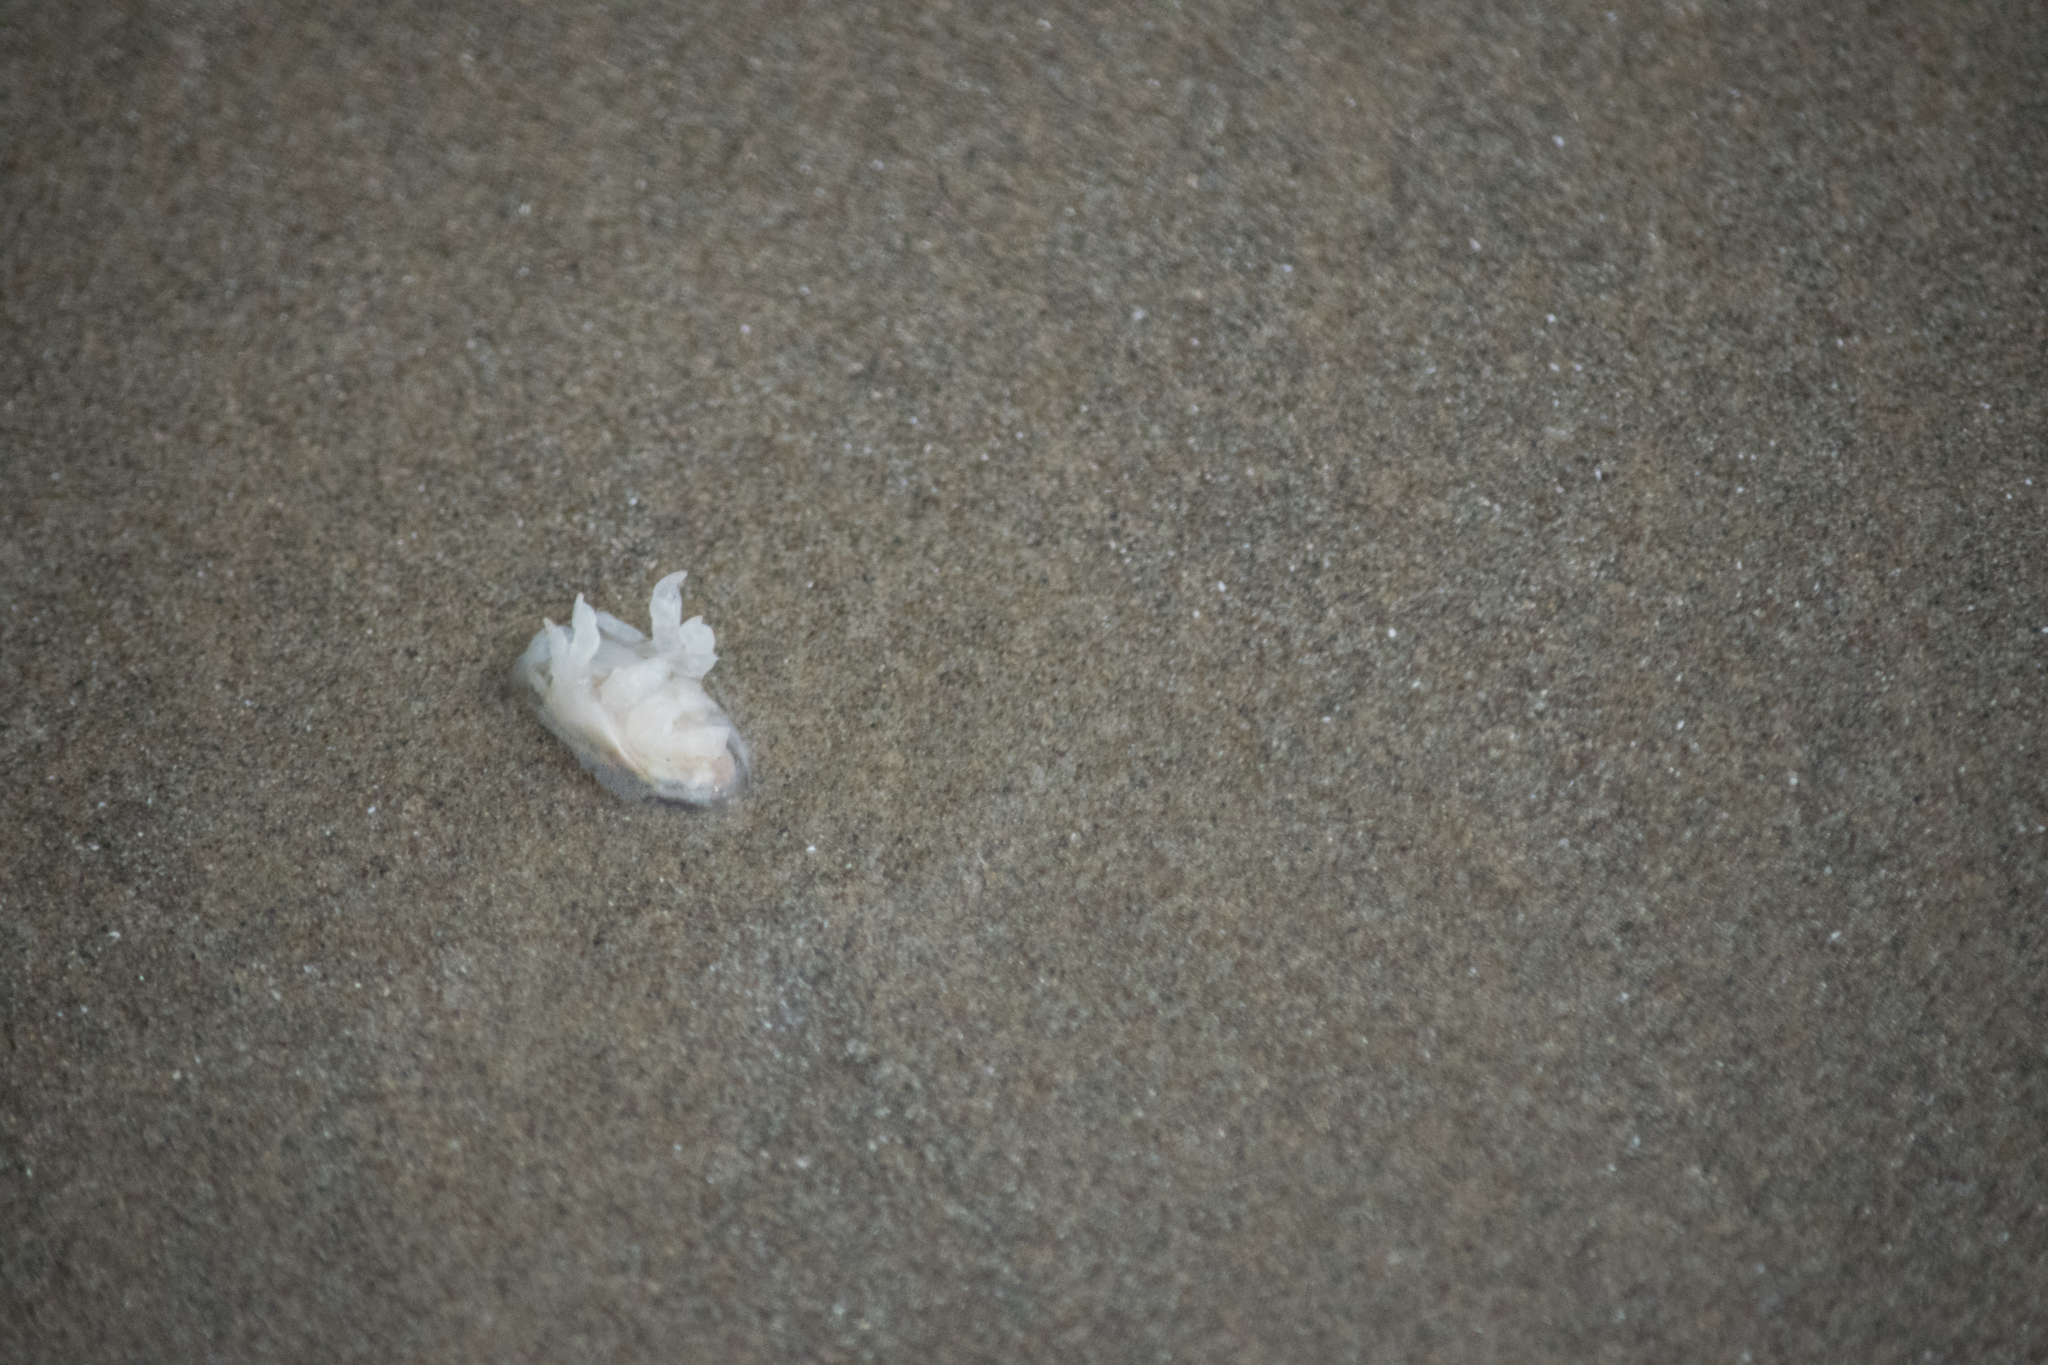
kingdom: Animalia
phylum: Arthropoda
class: Malacostraca
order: Decapoda
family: Hippidae
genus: Emerita
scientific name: Emerita analoga
